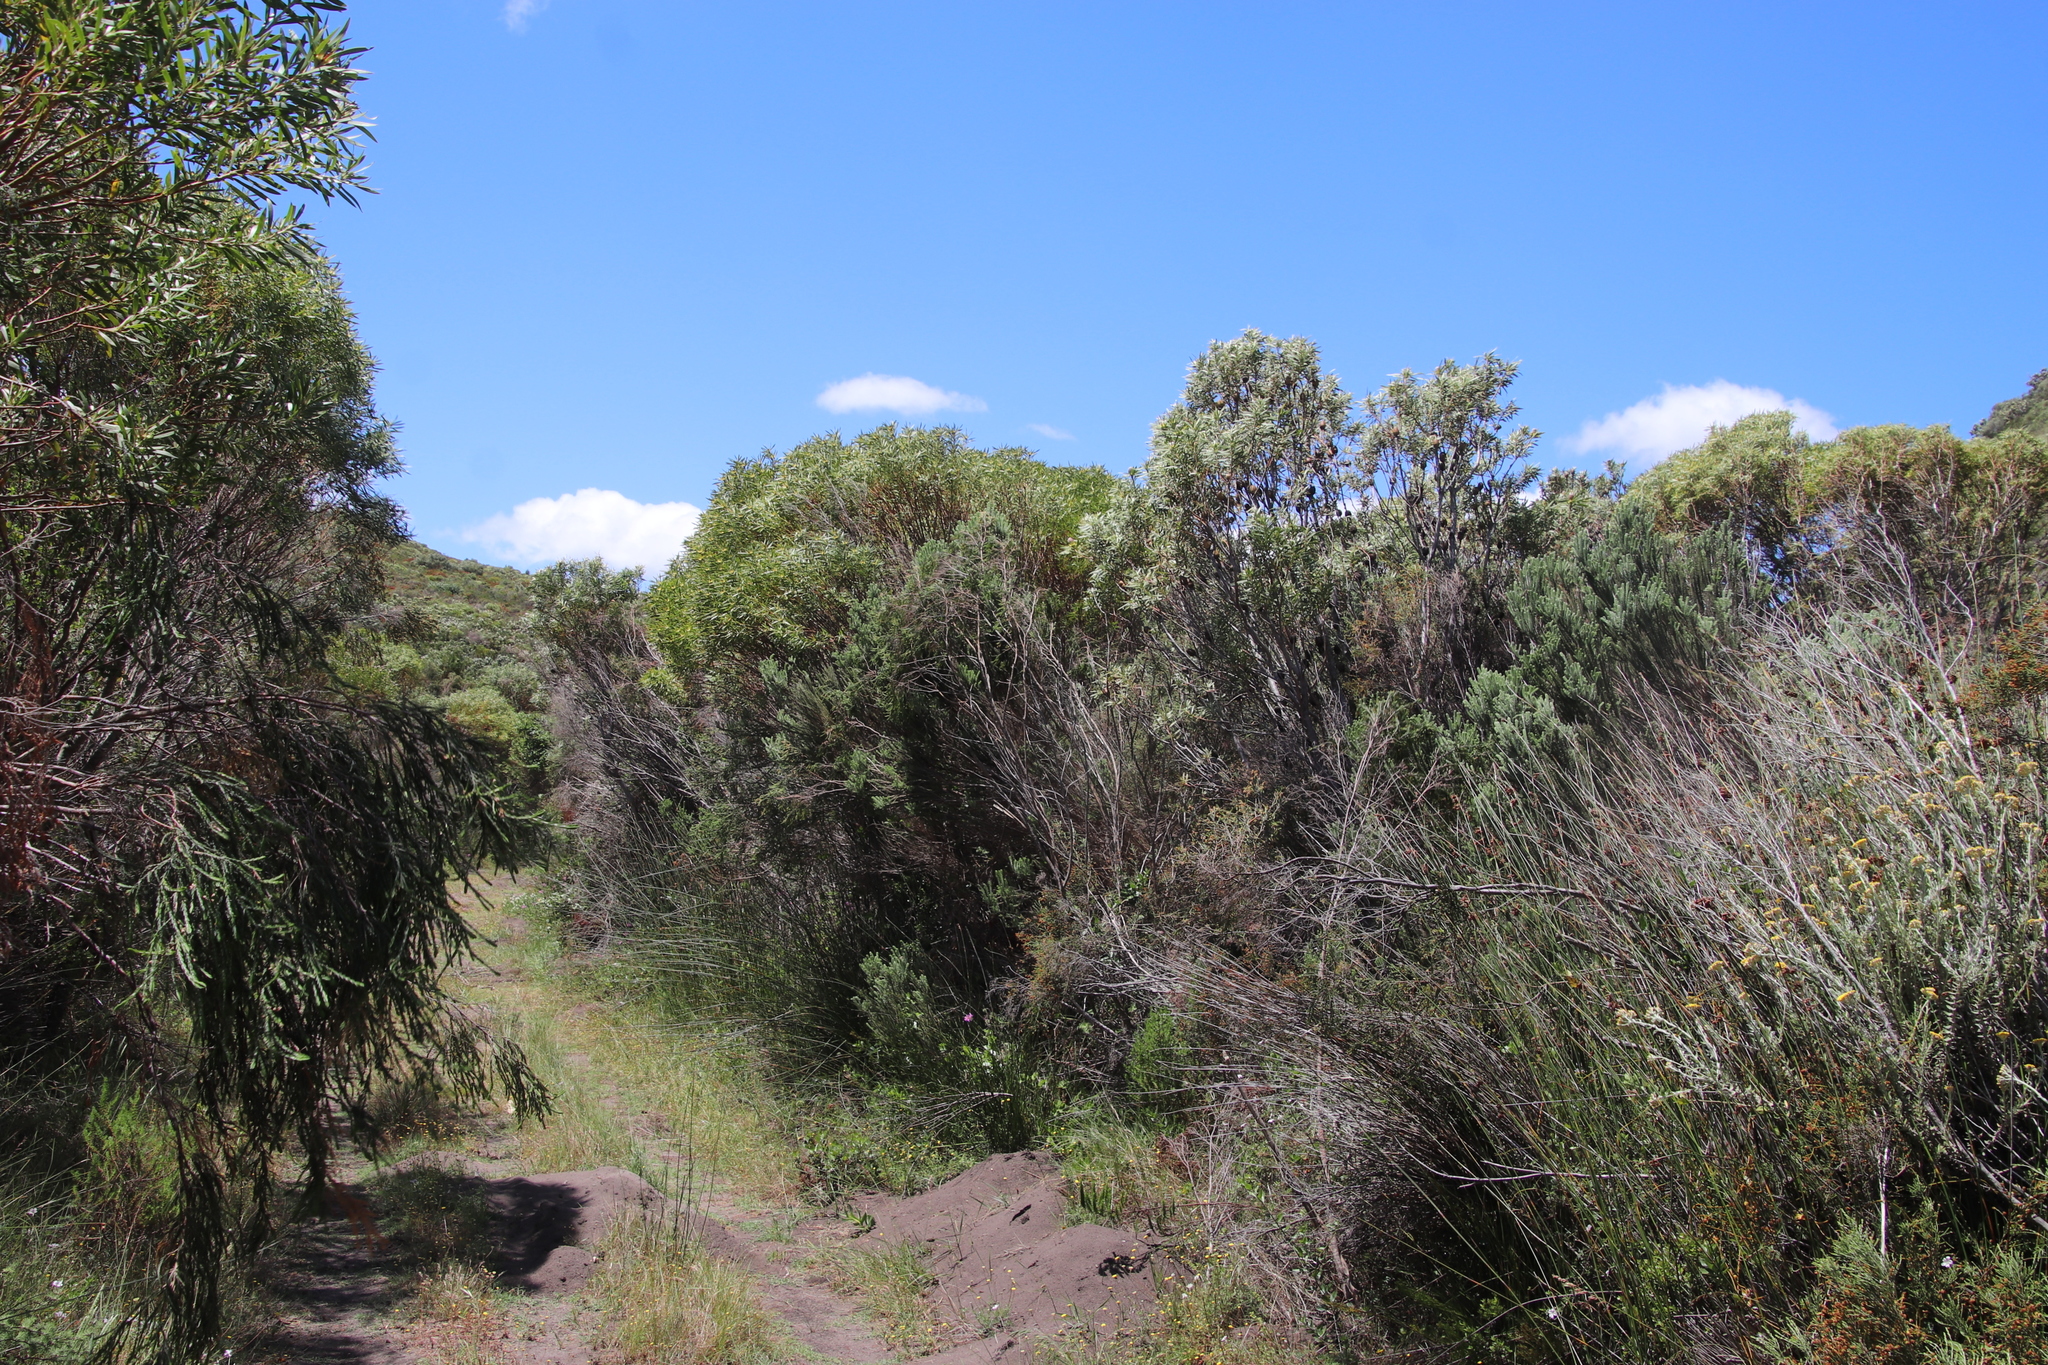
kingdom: Plantae
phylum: Tracheophyta
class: Magnoliopsida
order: Proteales
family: Proteaceae
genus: Leucadendron
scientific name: Leucadendron coniferum
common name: Dune conebush
